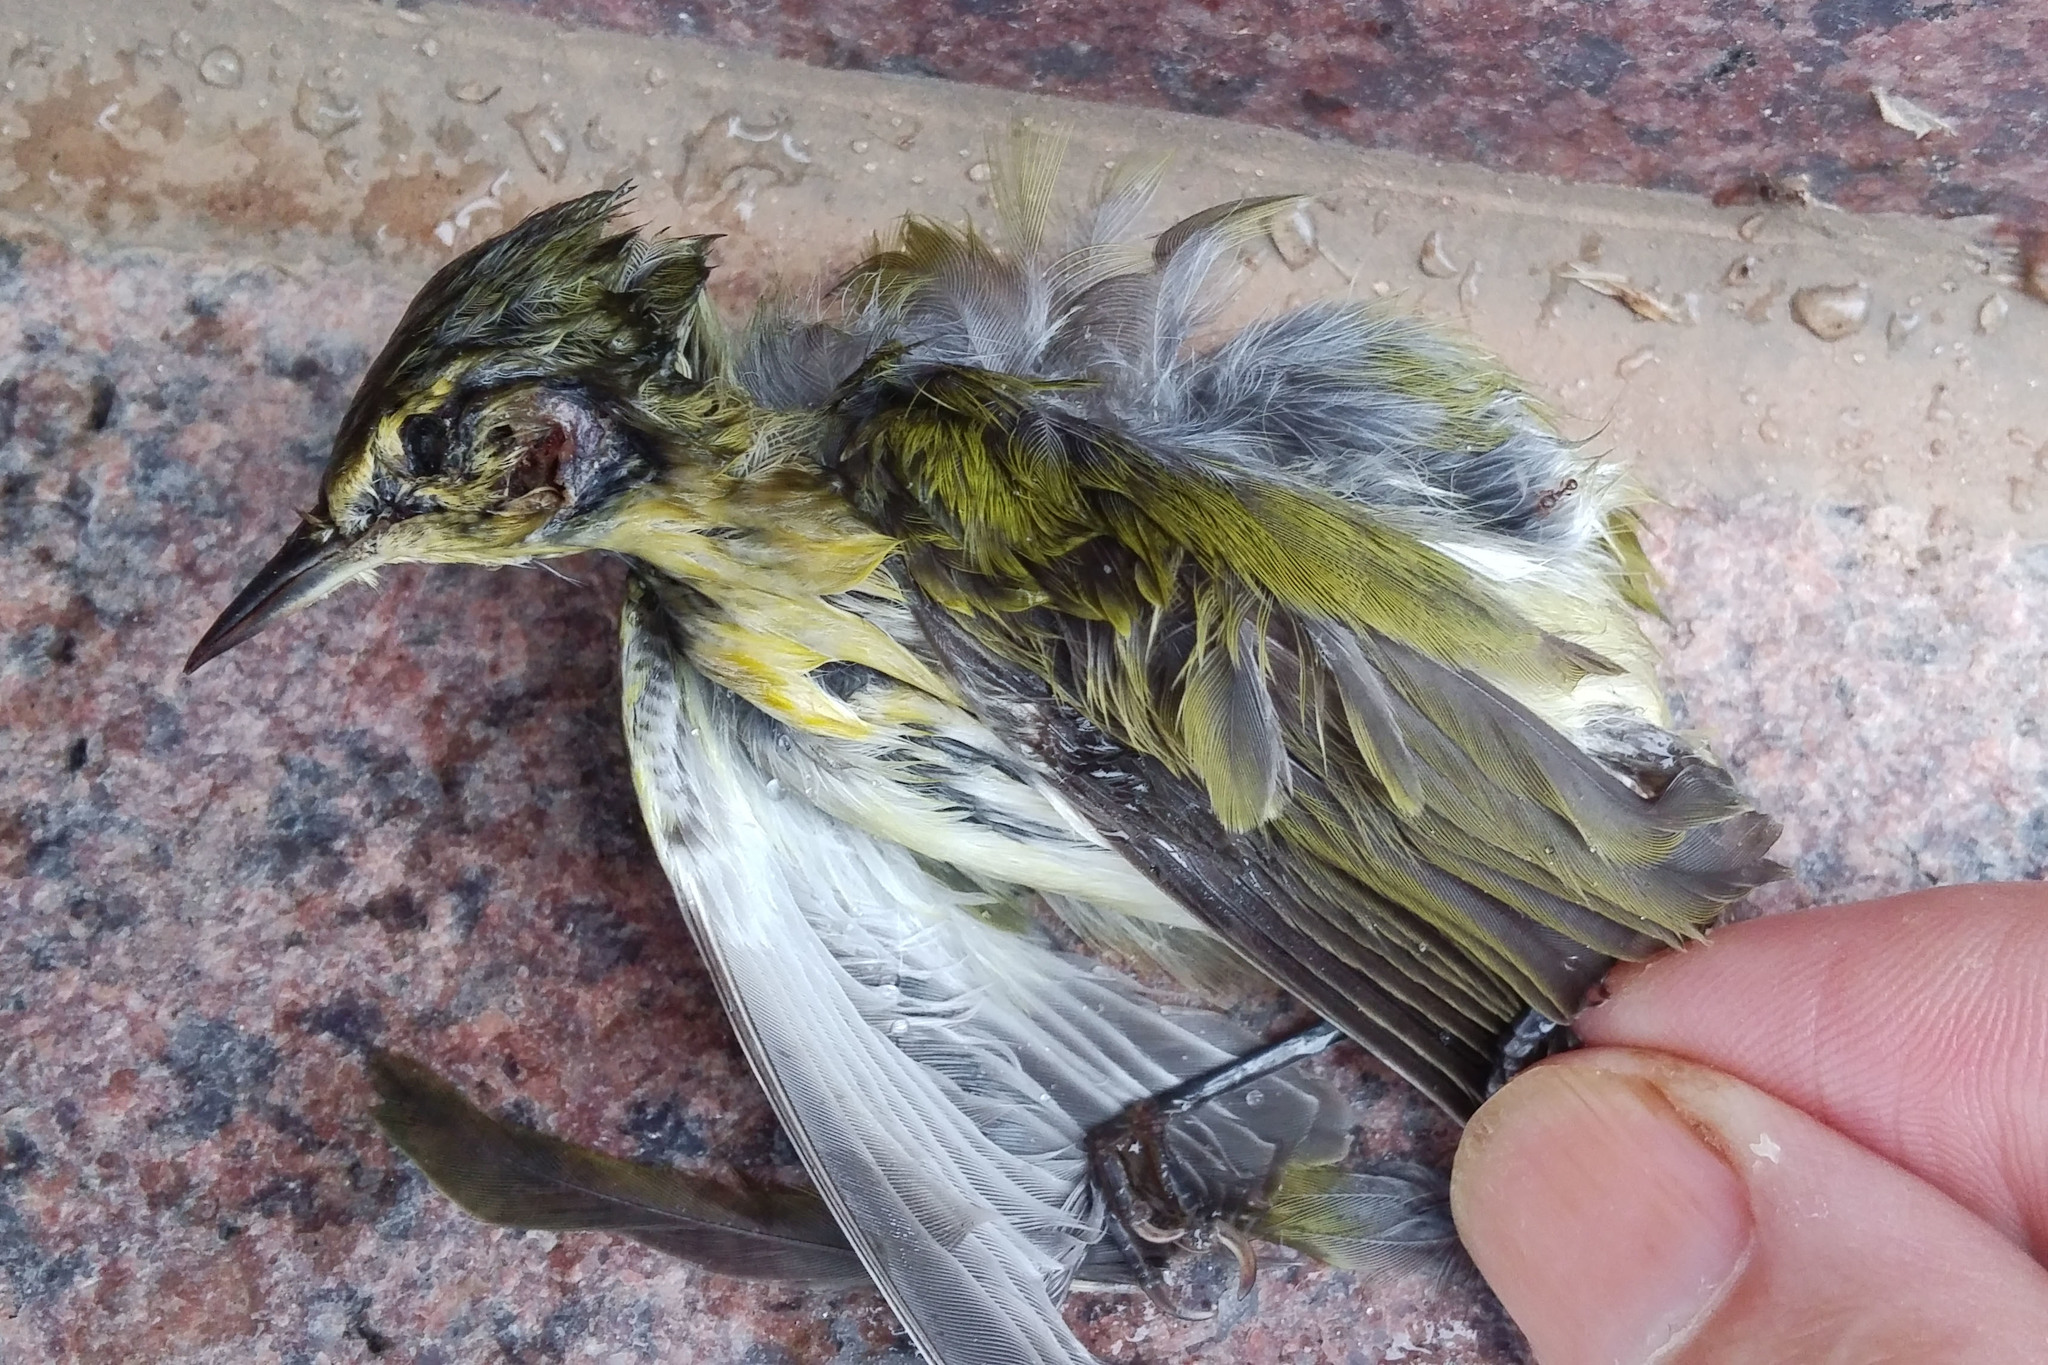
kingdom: Animalia
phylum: Chordata
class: Aves
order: Passeriformes
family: Parulidae
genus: Leiothlypis
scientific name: Leiothlypis peregrina
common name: Tennessee warbler
